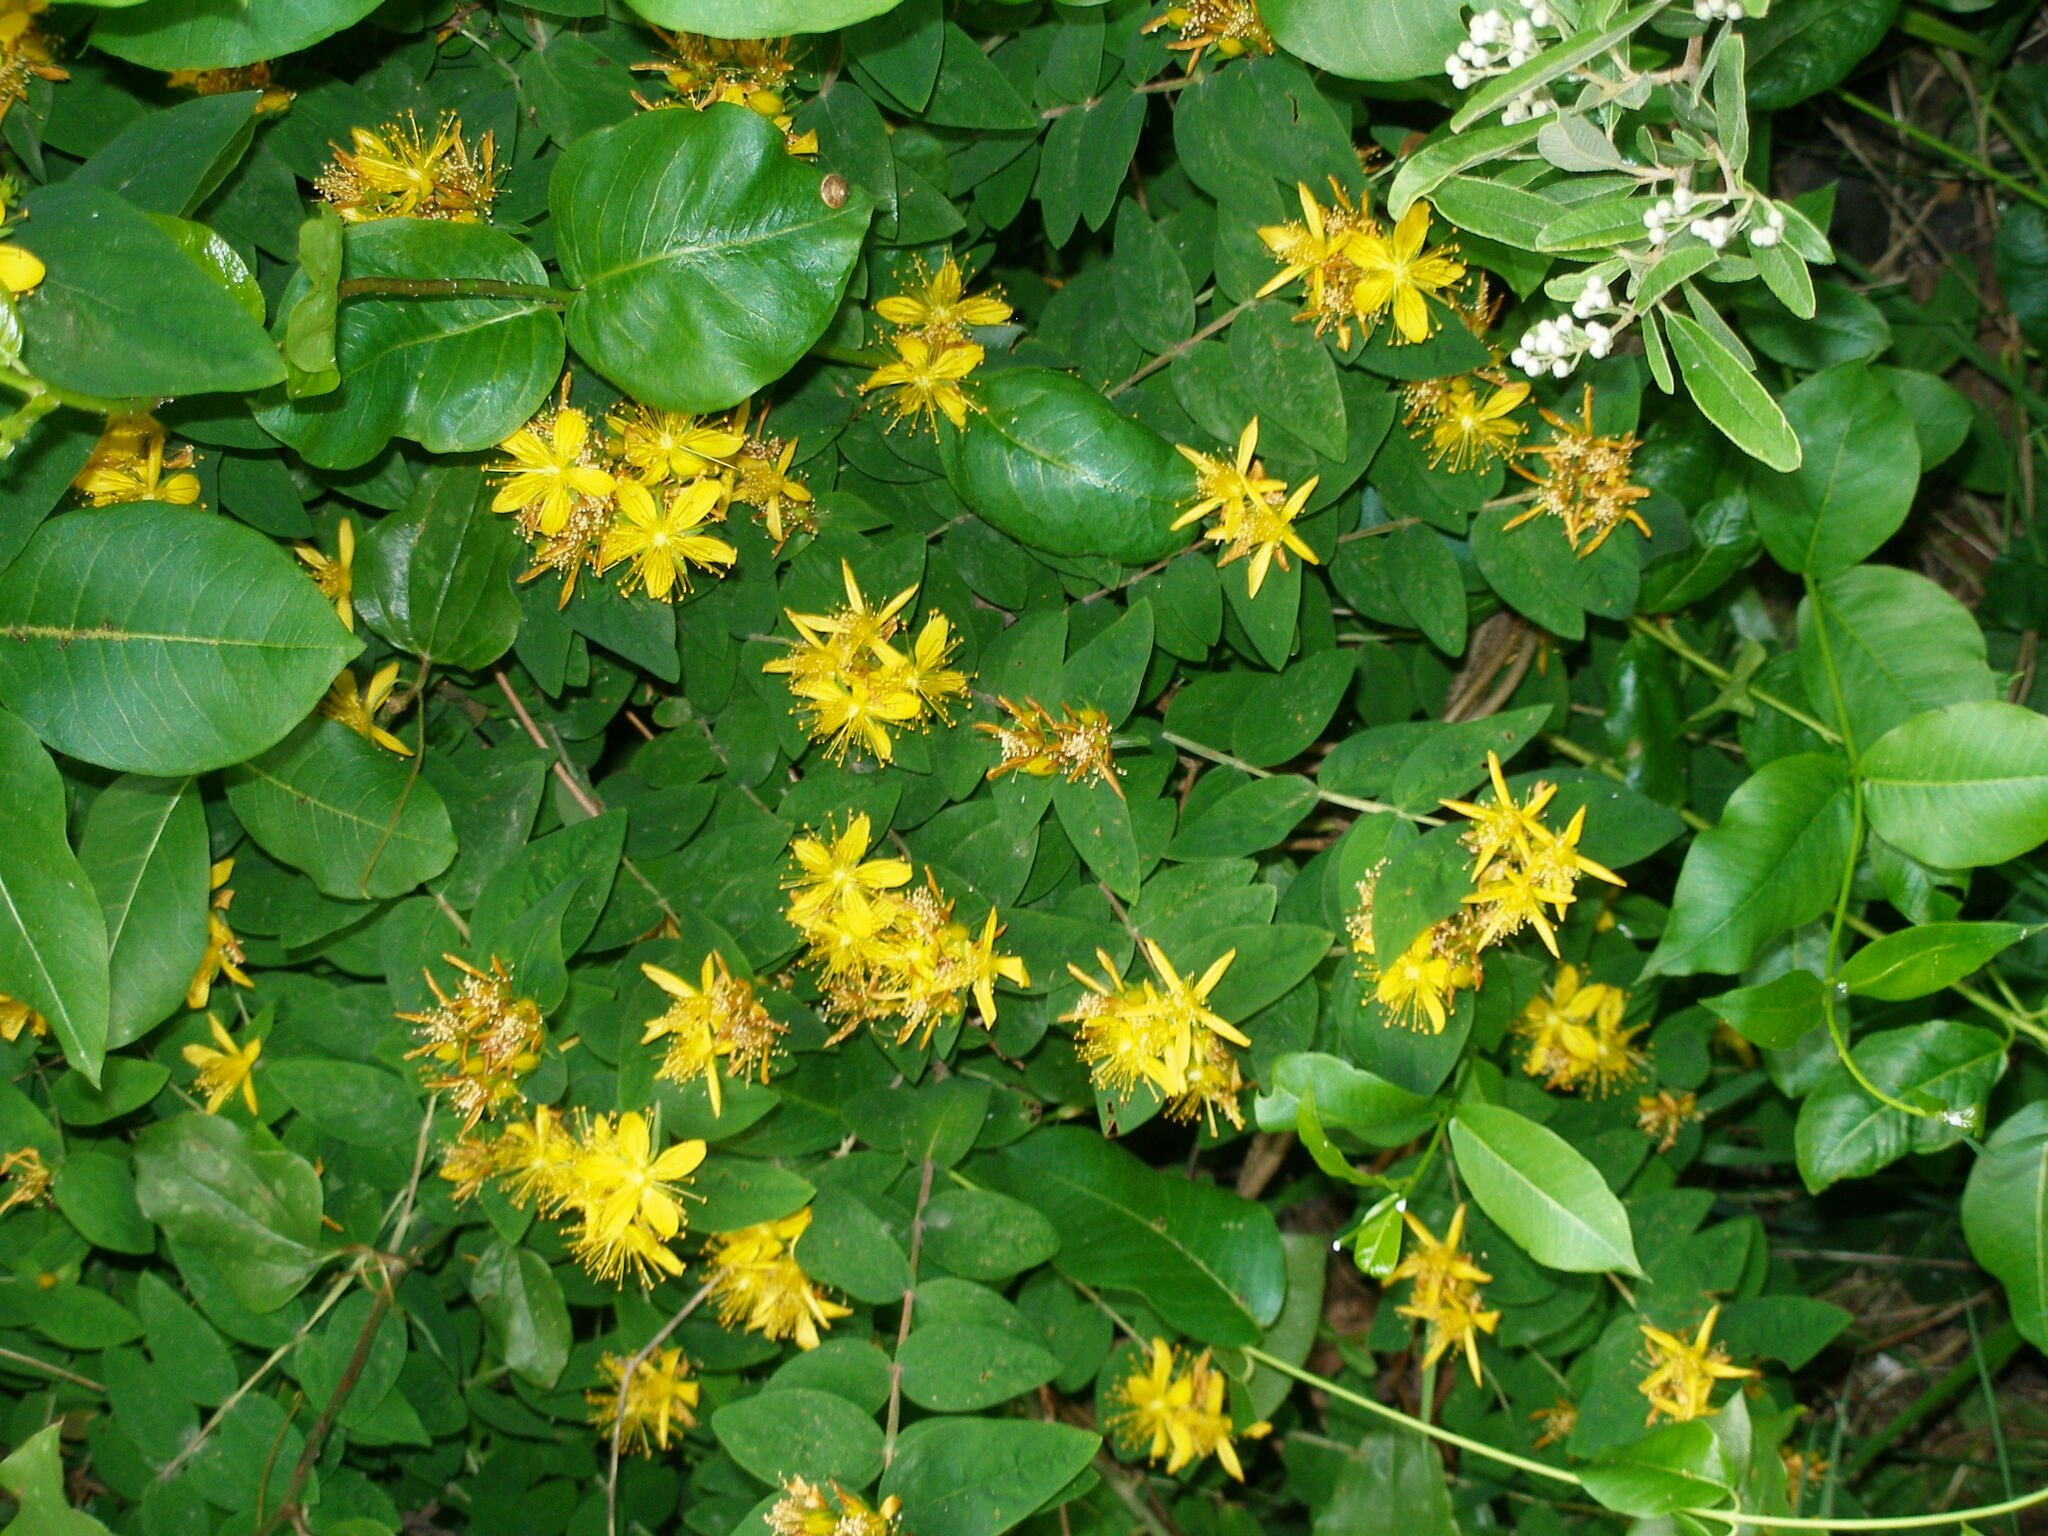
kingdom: Plantae
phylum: Tracheophyta
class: Magnoliopsida
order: Malpighiales
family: Hypericaceae
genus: Hypericum
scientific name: Hypericum xylosteifolium
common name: Turkish tutsan
